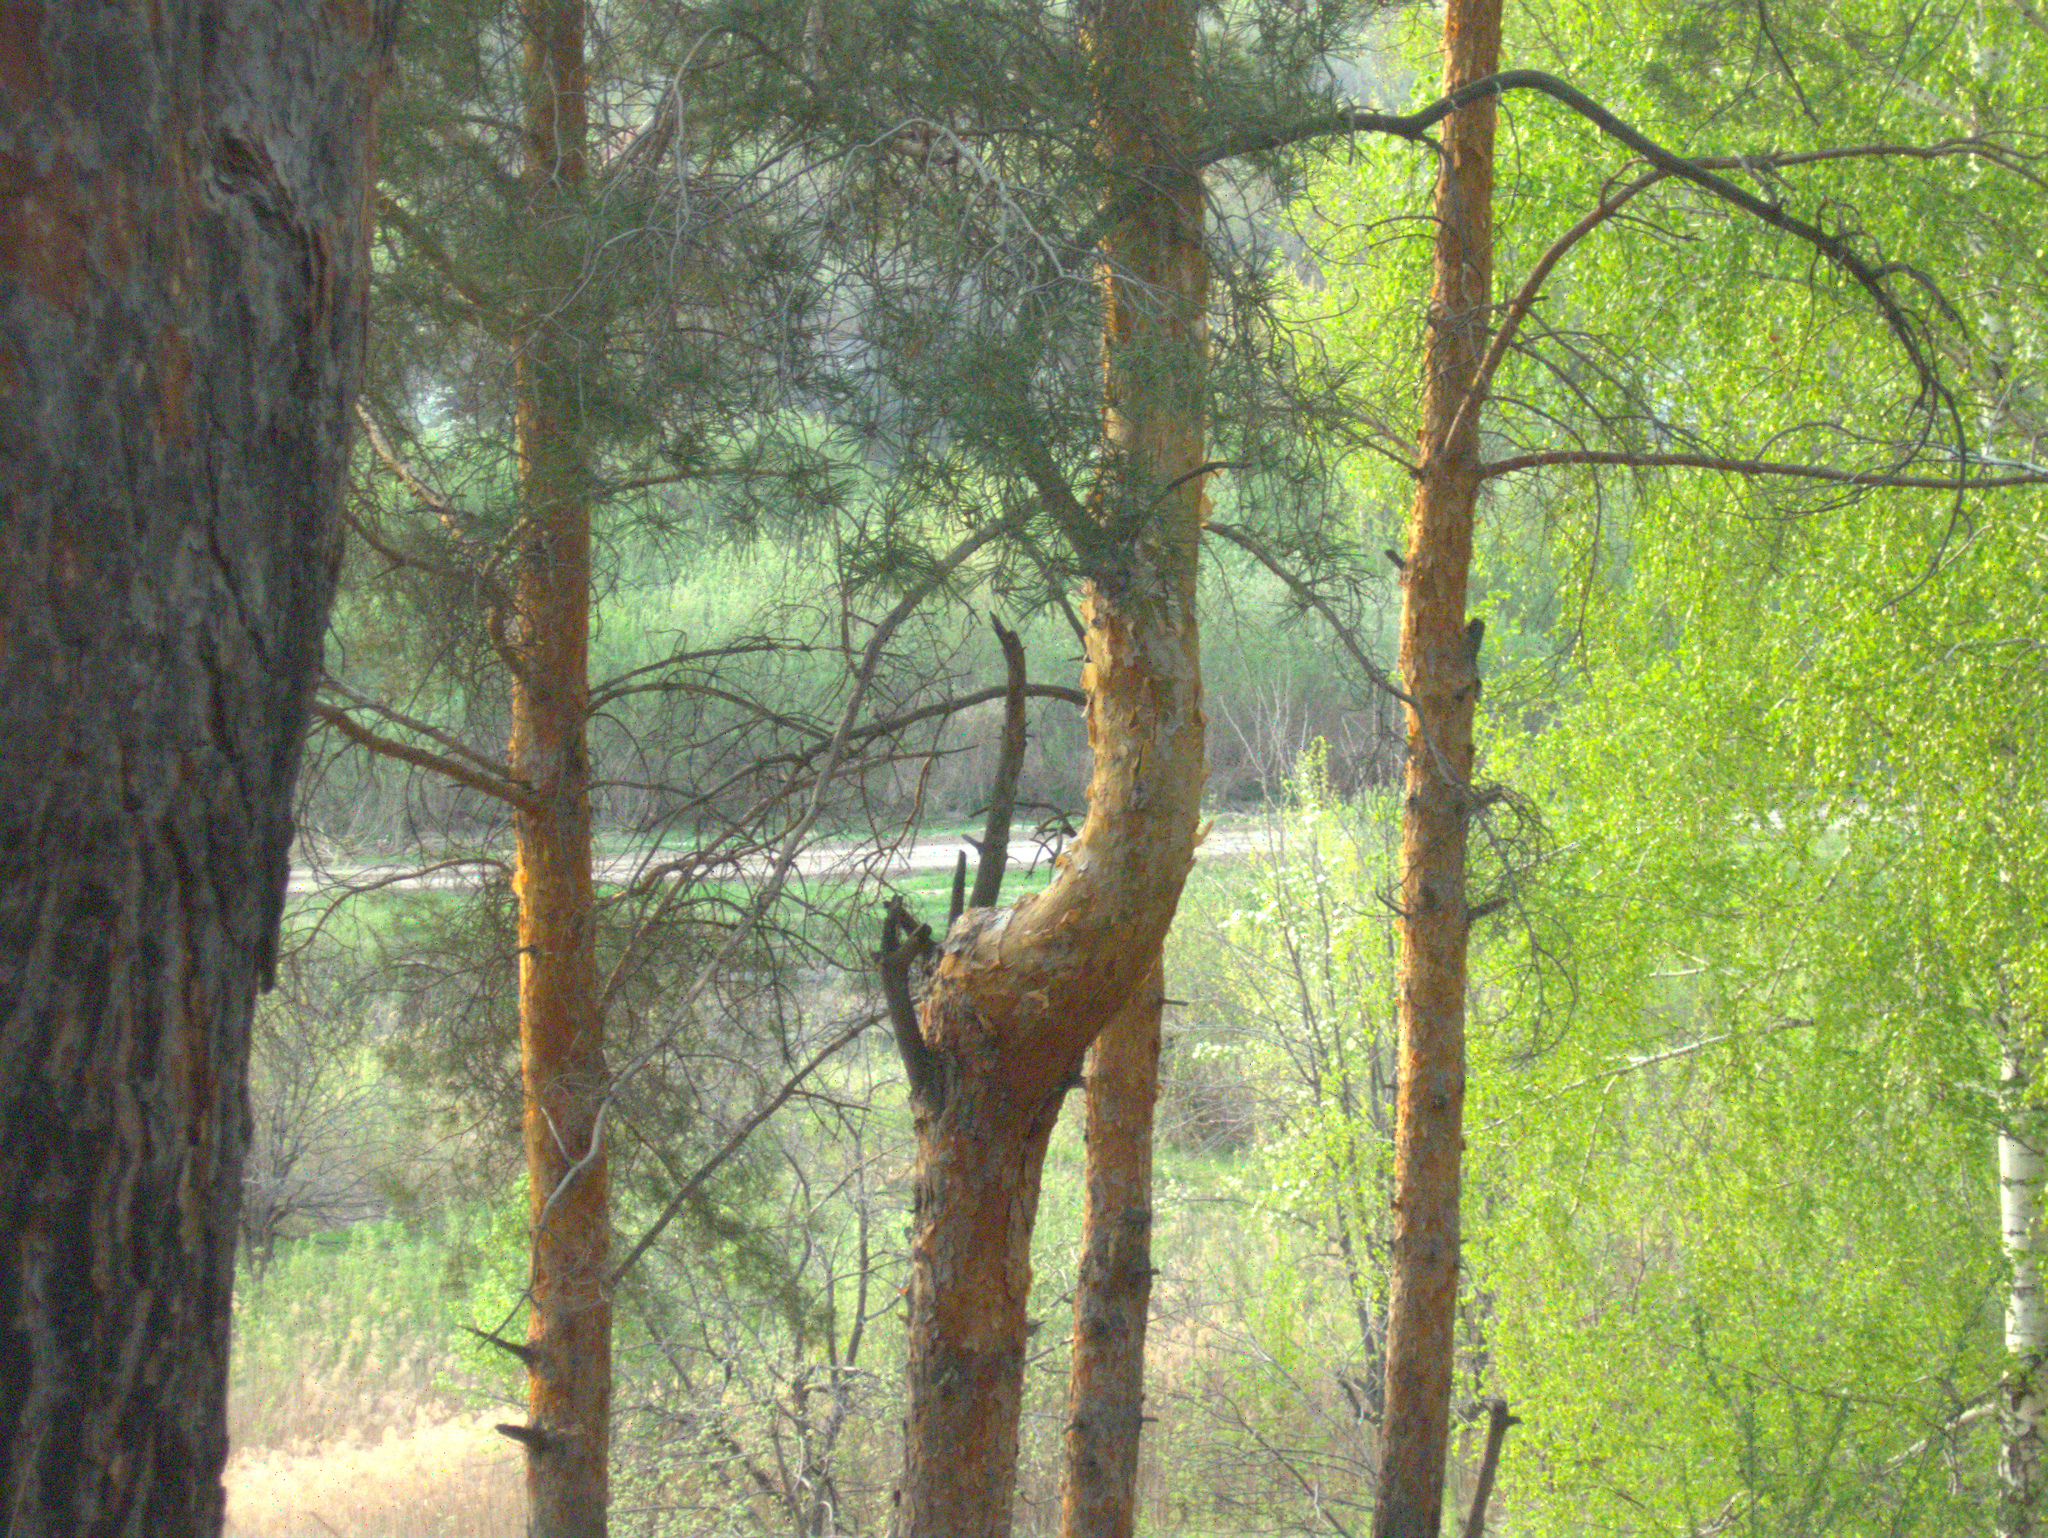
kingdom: Plantae
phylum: Tracheophyta
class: Pinopsida
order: Pinales
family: Pinaceae
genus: Pinus
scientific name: Pinus sylvestris
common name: Scots pine
